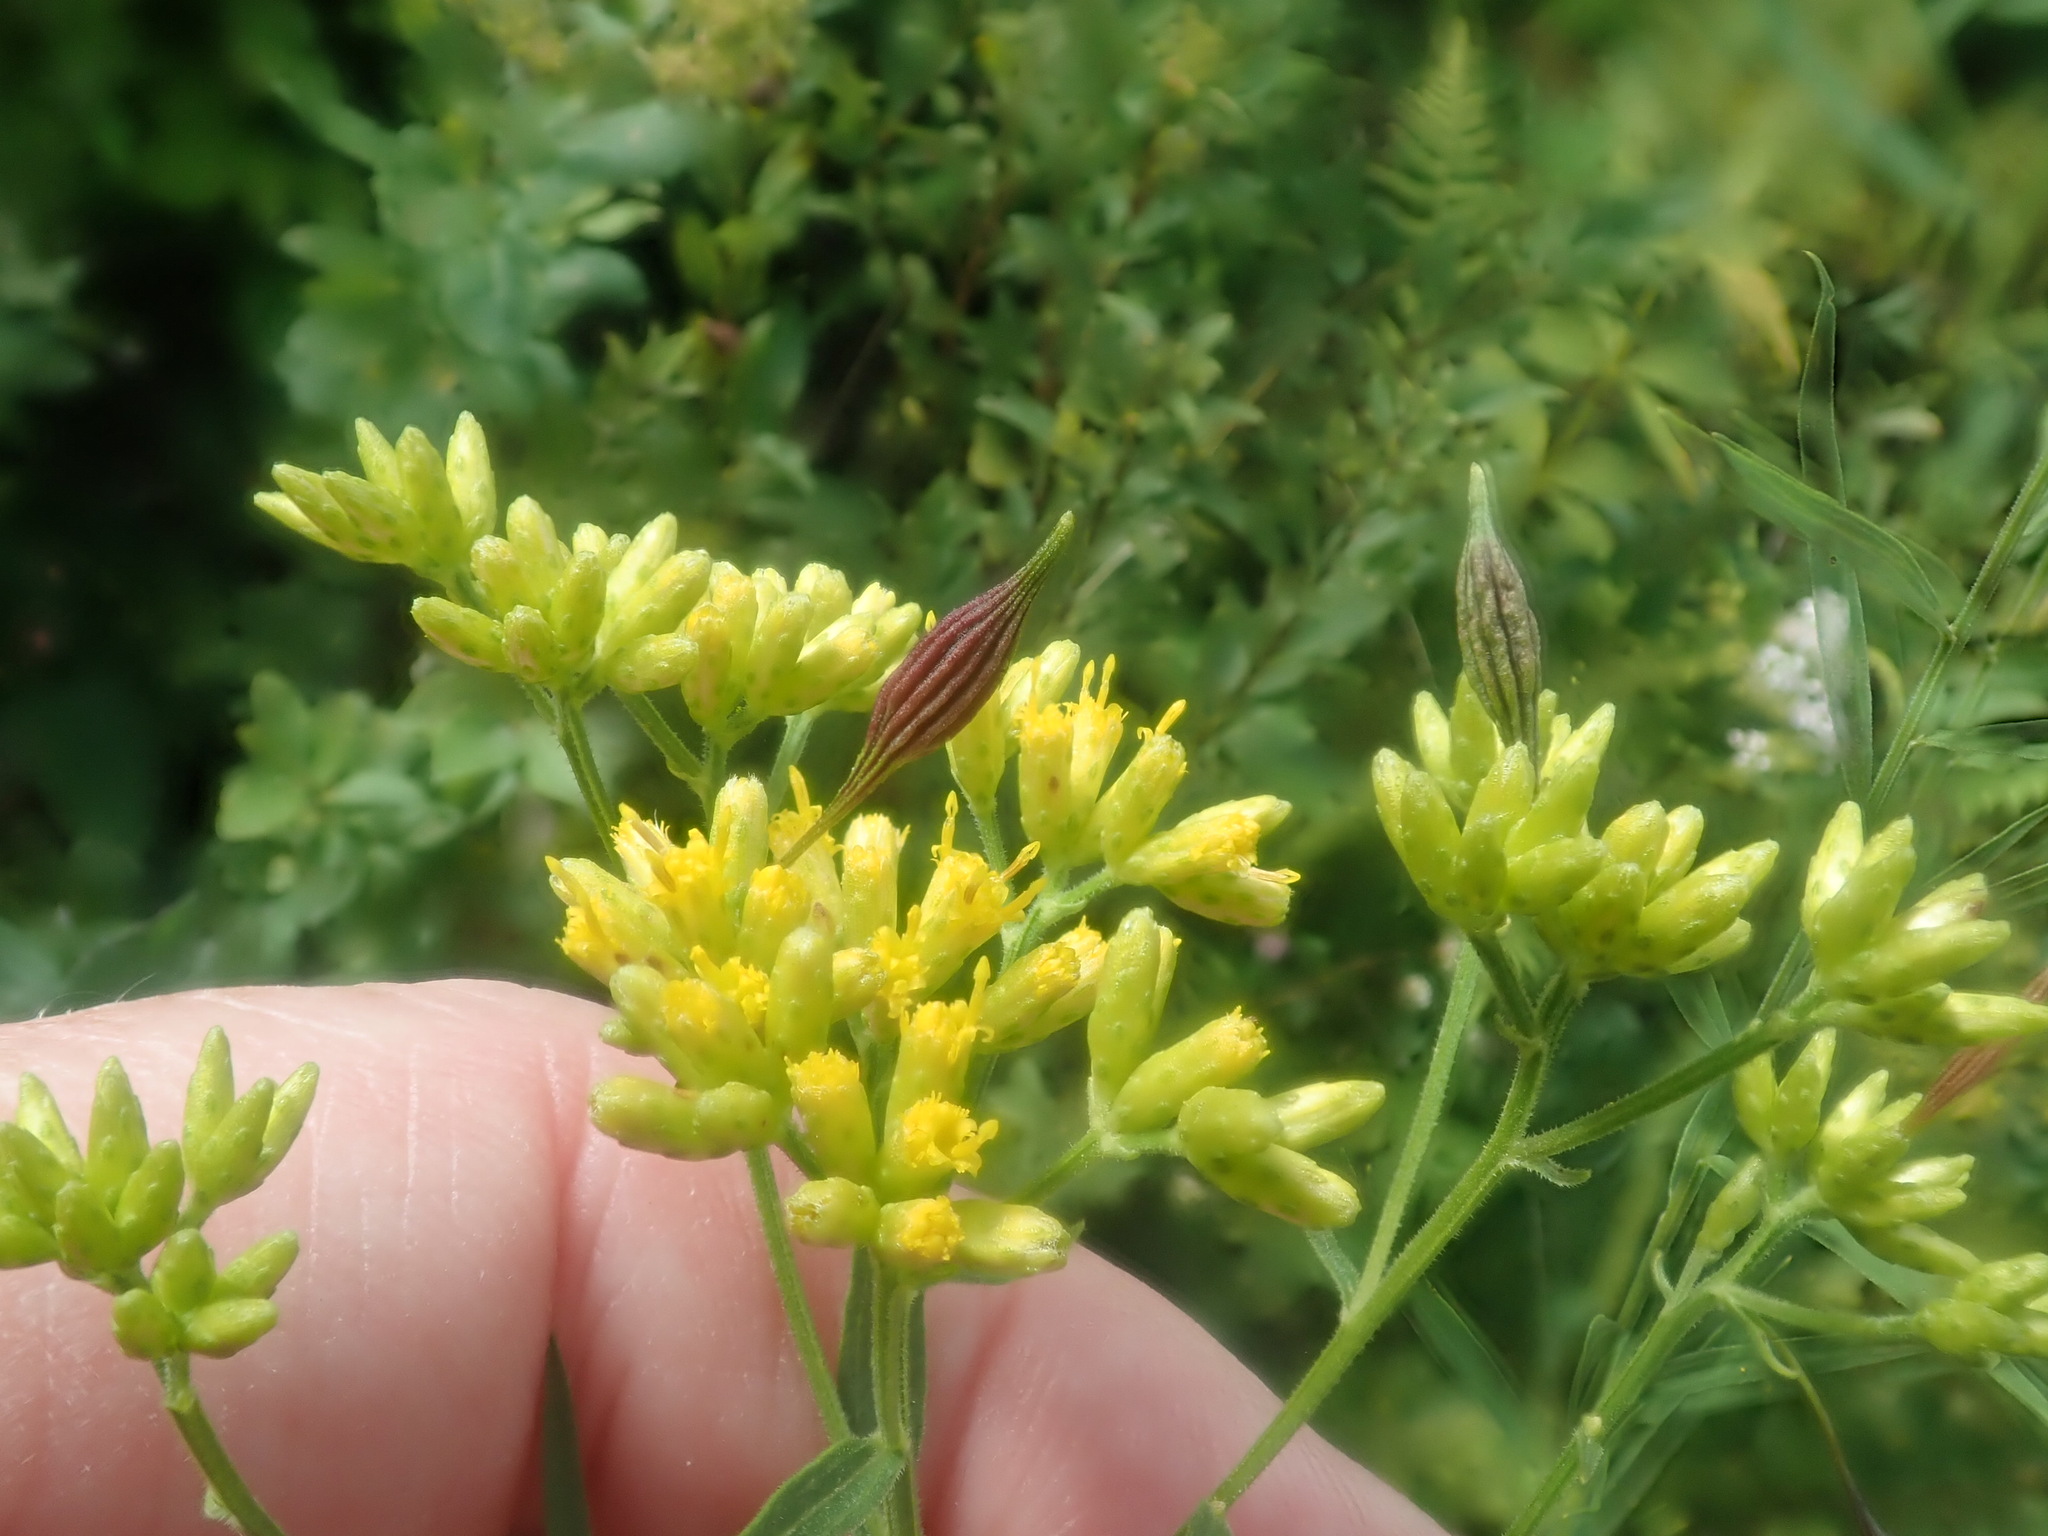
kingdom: Animalia
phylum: Arthropoda
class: Insecta
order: Diptera
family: Cecidomyiidae
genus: Rhopalomyia
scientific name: Rhopalomyia pedicellata
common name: Goldentop pedicellate gall midge
